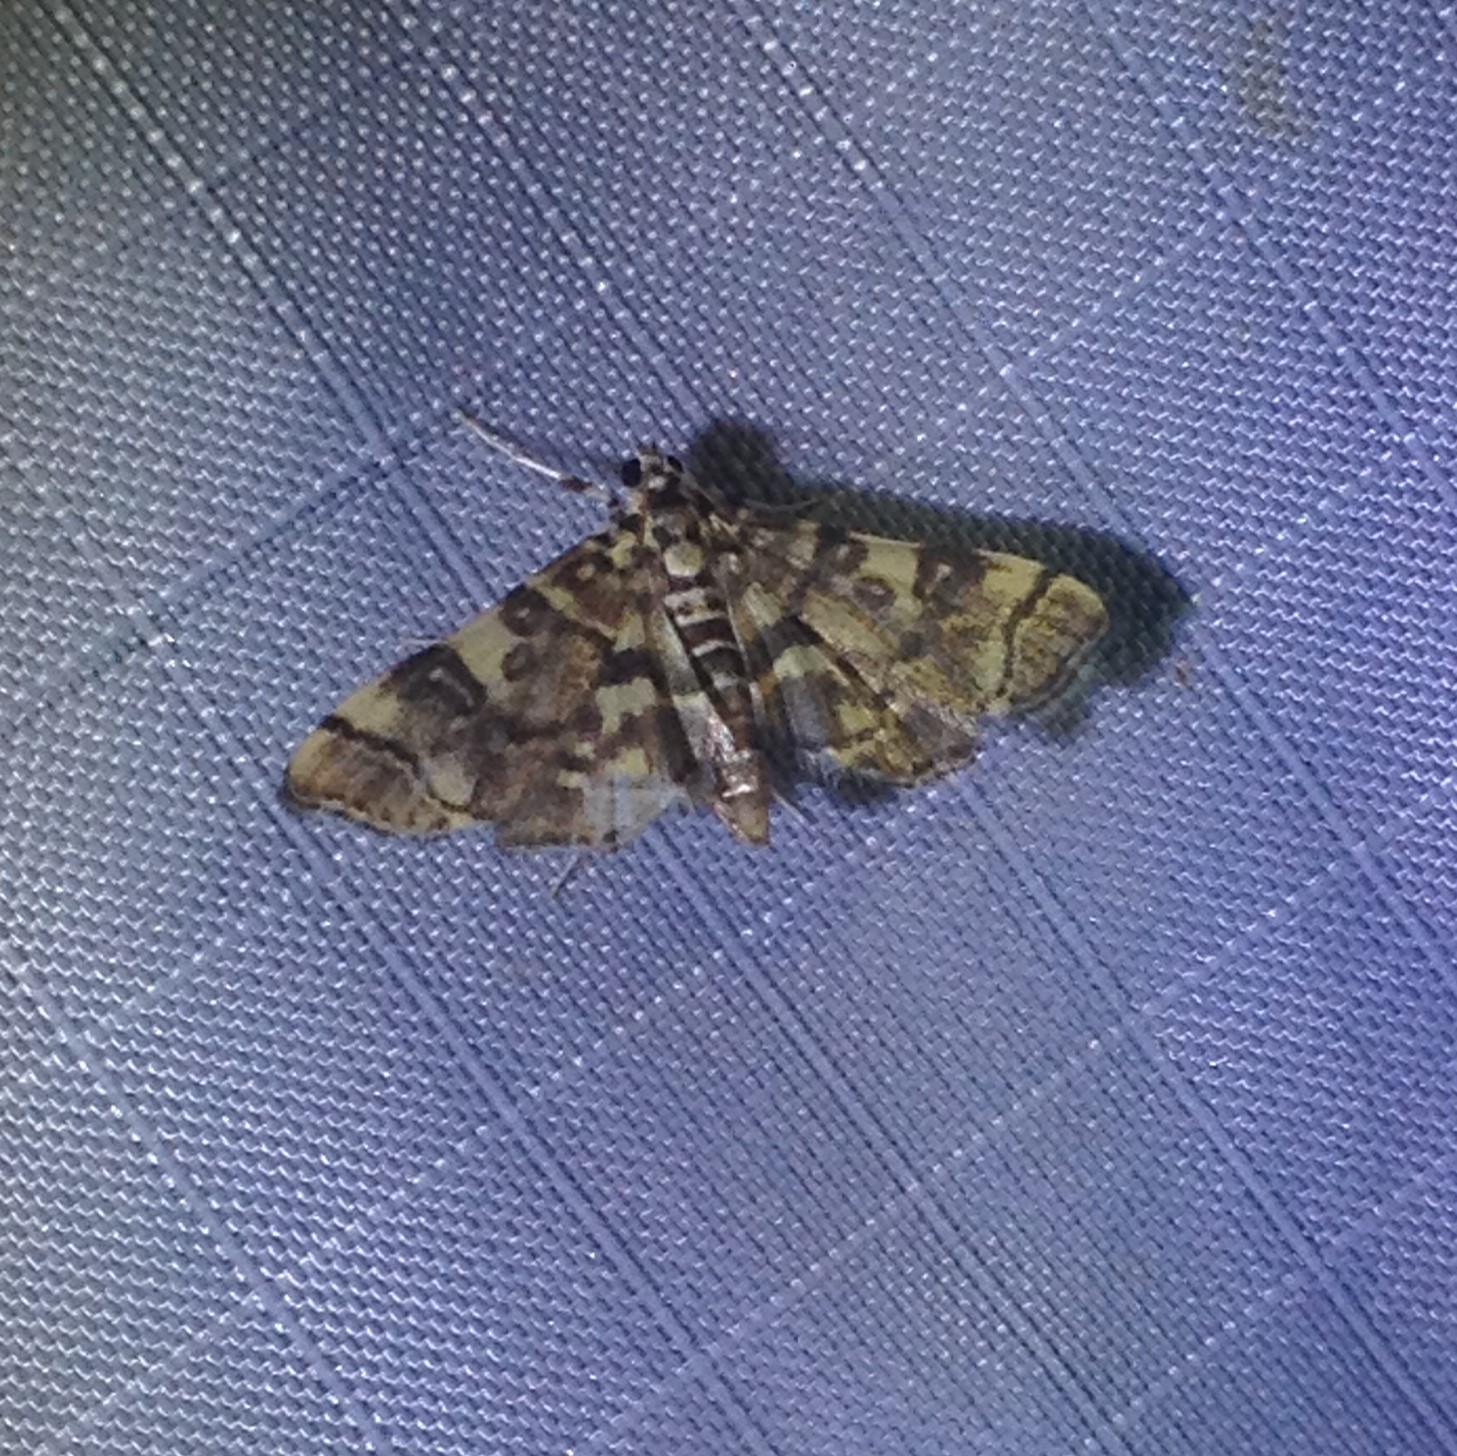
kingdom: Animalia
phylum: Arthropoda
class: Insecta
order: Lepidoptera
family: Crambidae
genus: Apogeshna
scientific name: Apogeshna stenialis
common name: Checkered apogeshna moth
